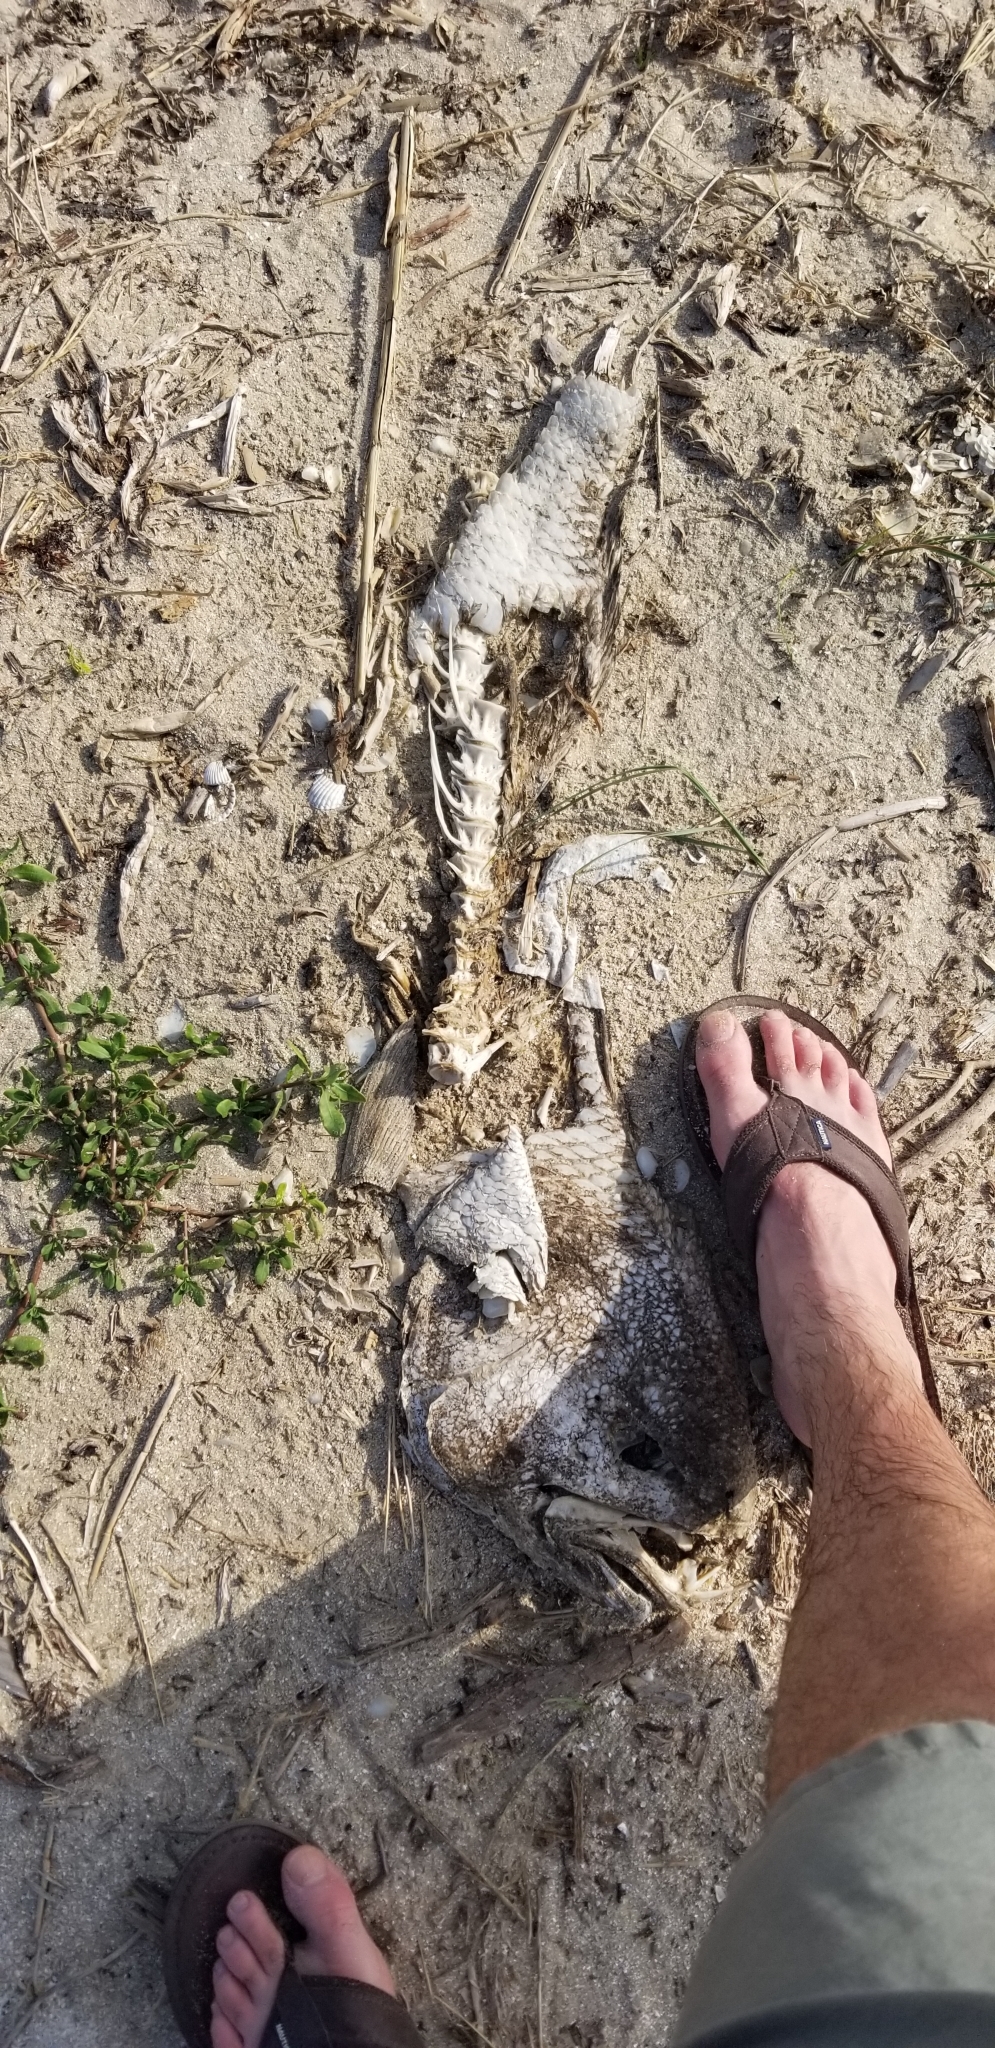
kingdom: Animalia
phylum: Chordata
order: Perciformes
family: Sciaenidae
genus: Sciaenops
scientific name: Sciaenops ocellatus
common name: Red drum
